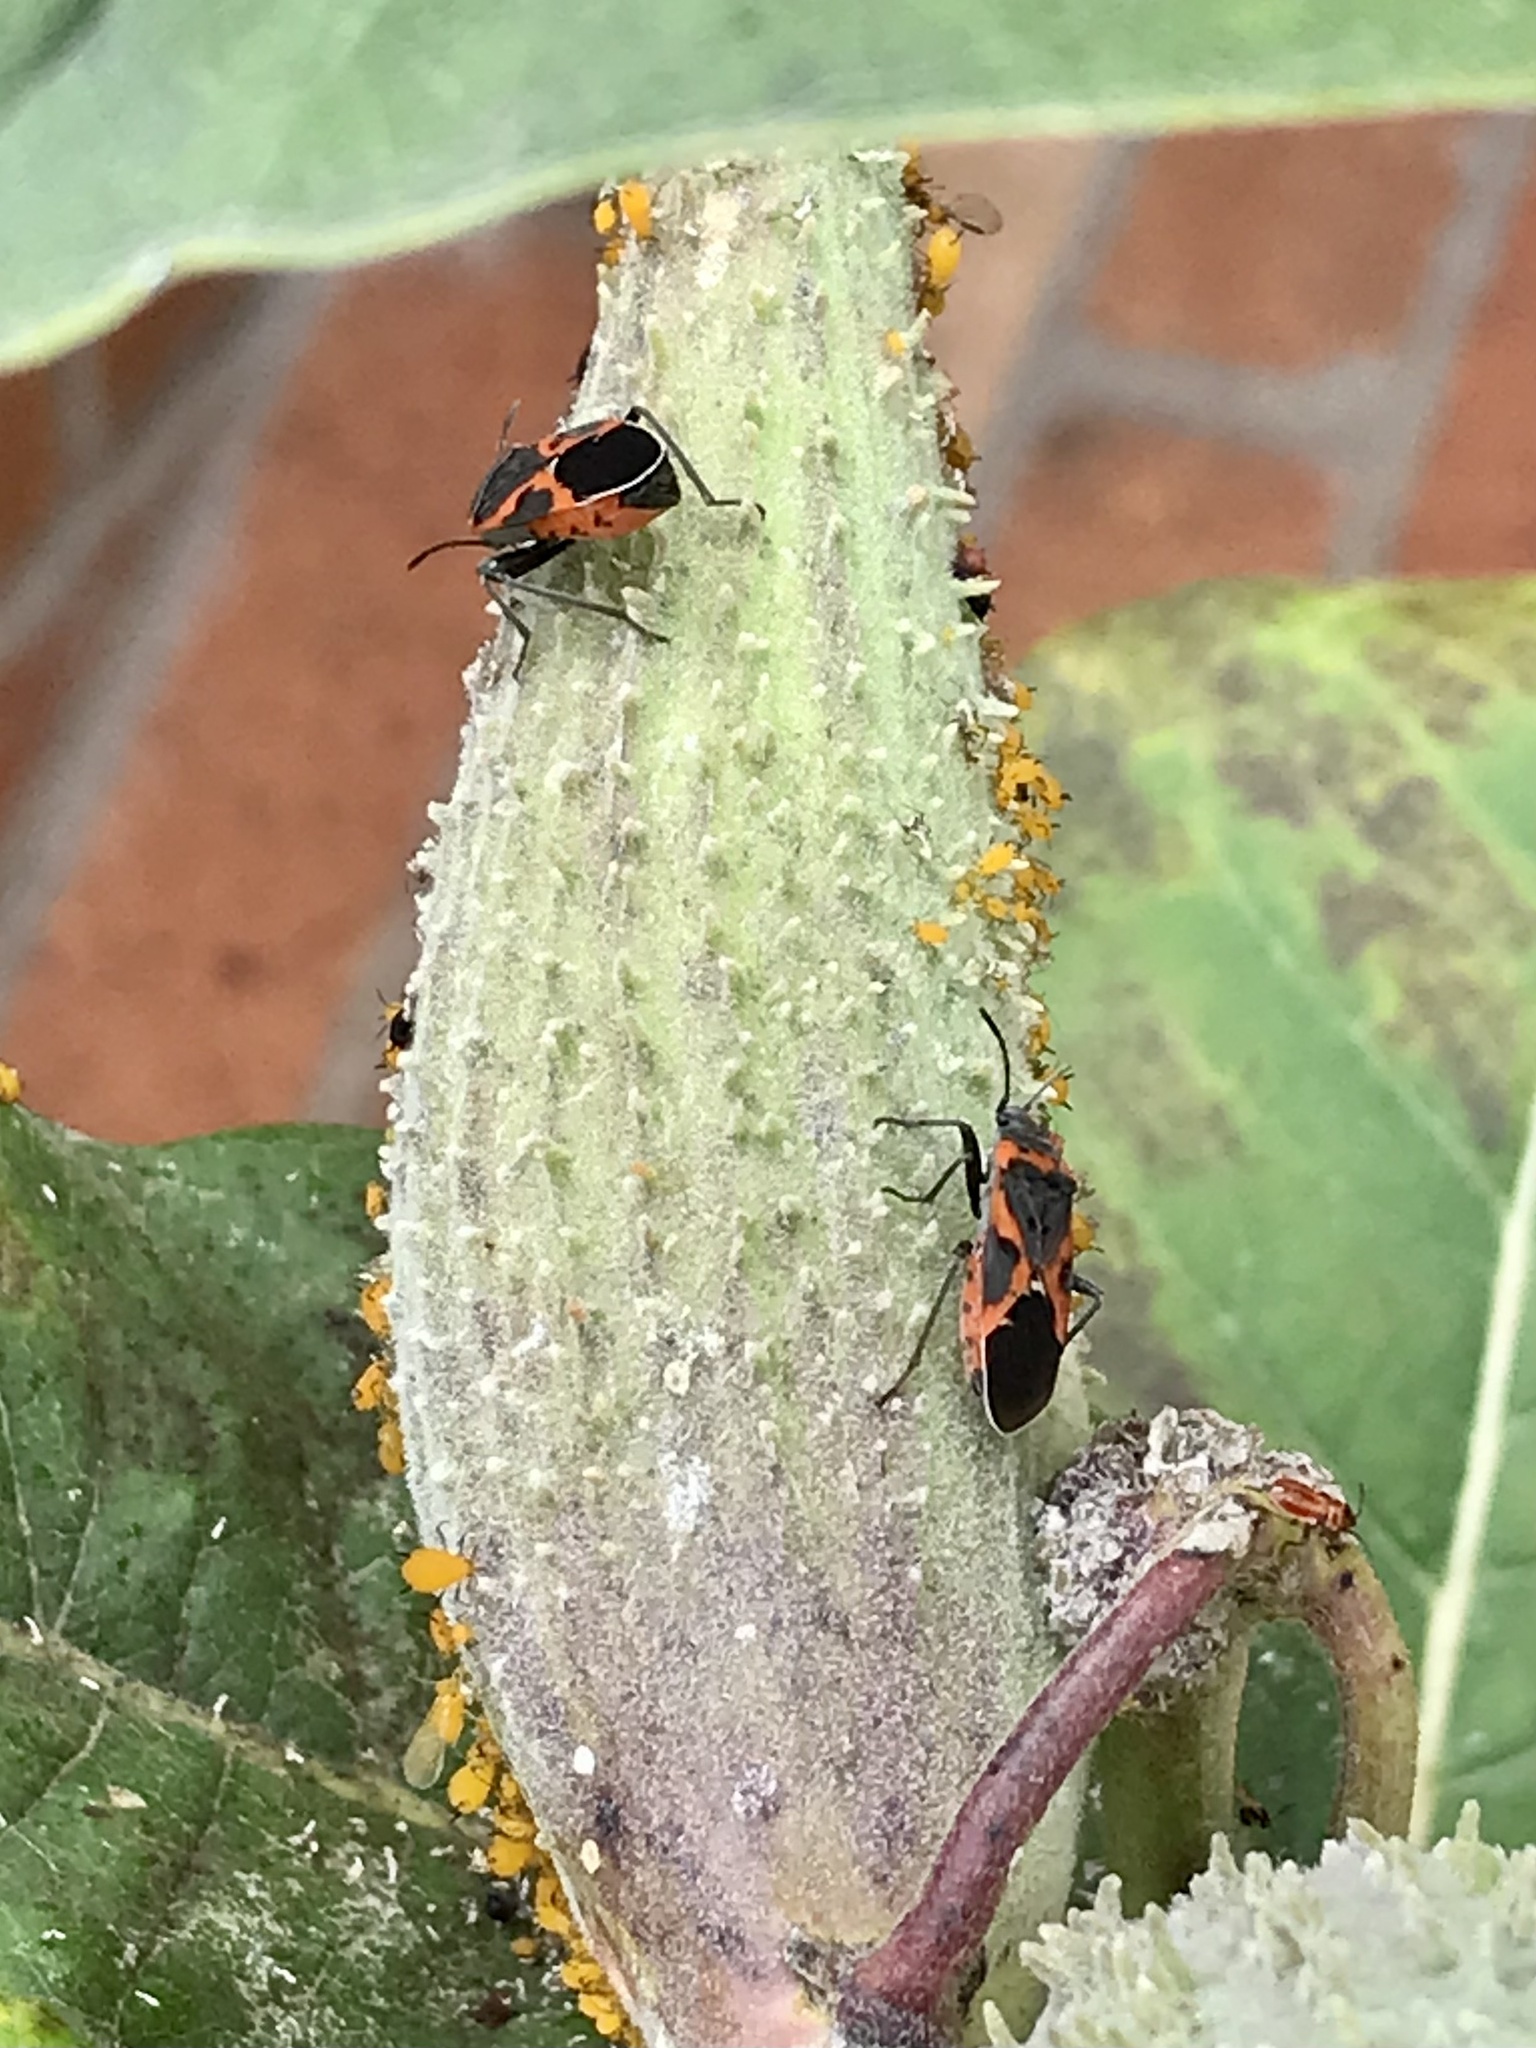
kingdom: Animalia
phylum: Arthropoda
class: Insecta
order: Hemiptera
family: Lygaeidae
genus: Lygaeus
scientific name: Lygaeus kalmii
